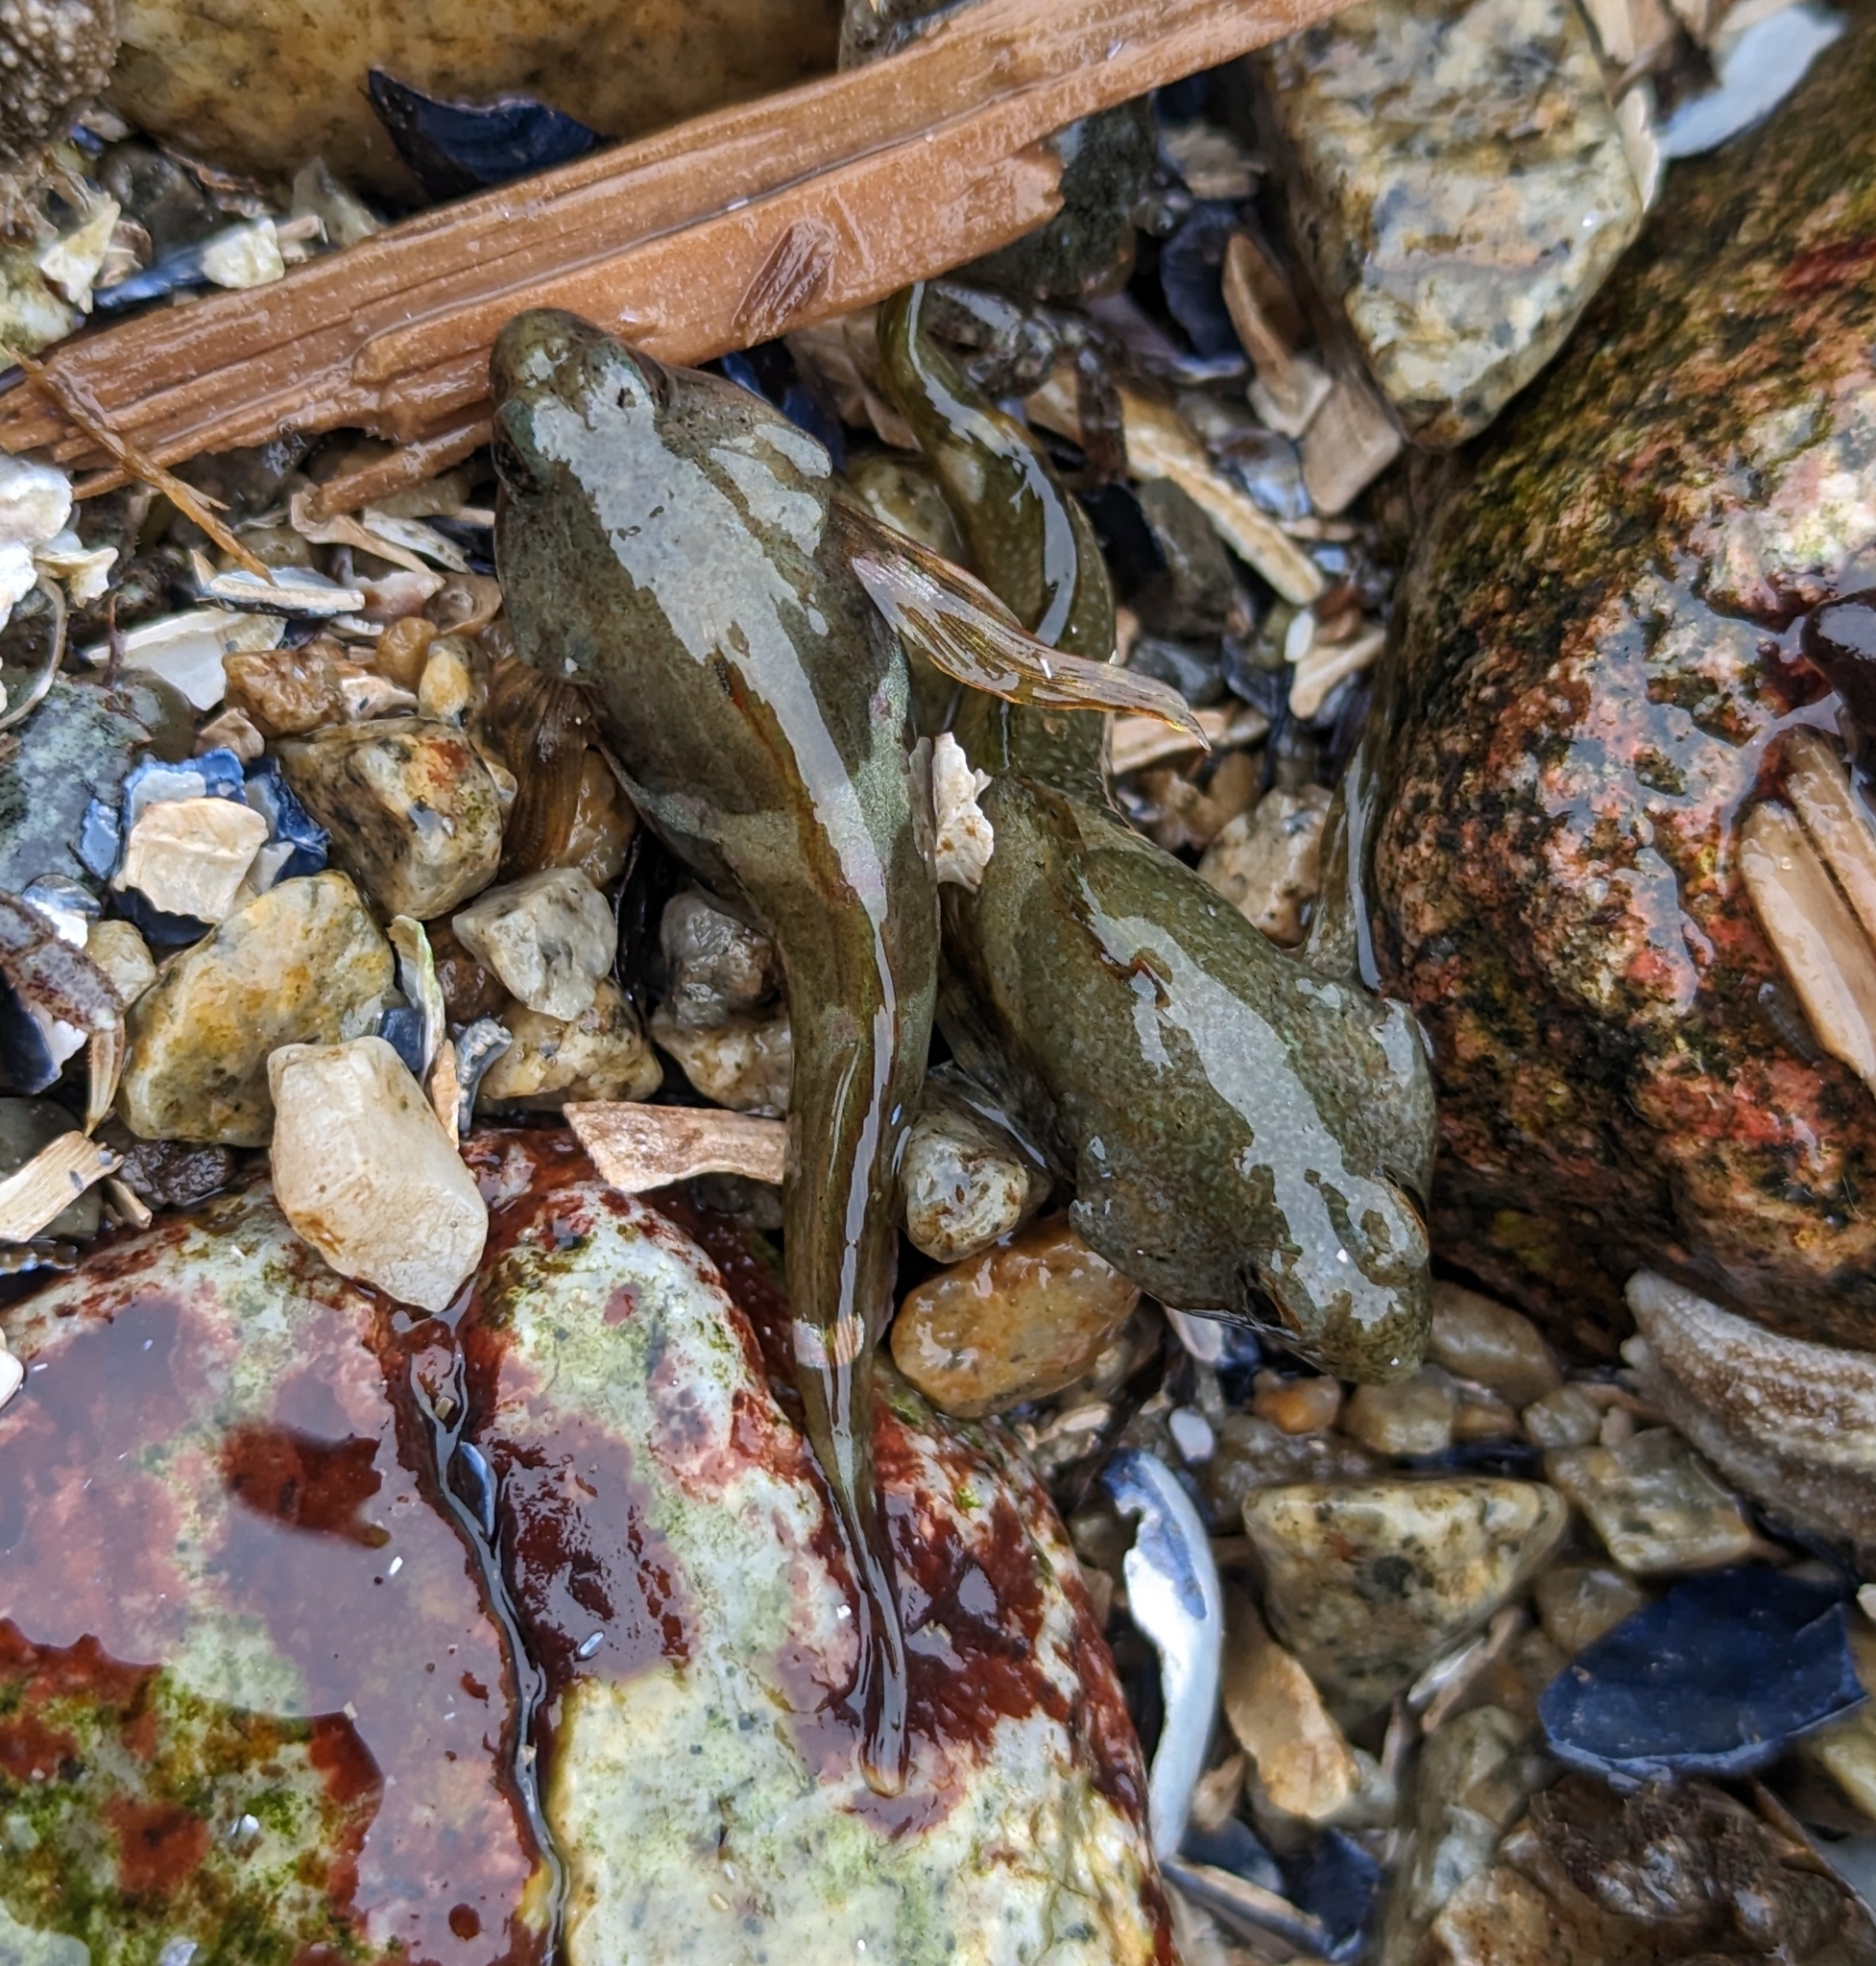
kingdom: Animalia
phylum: Chordata
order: Scorpaeniformes
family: Cottidae
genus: Oligocottus
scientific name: Oligocottus maculosus
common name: Tidepool sculpin
